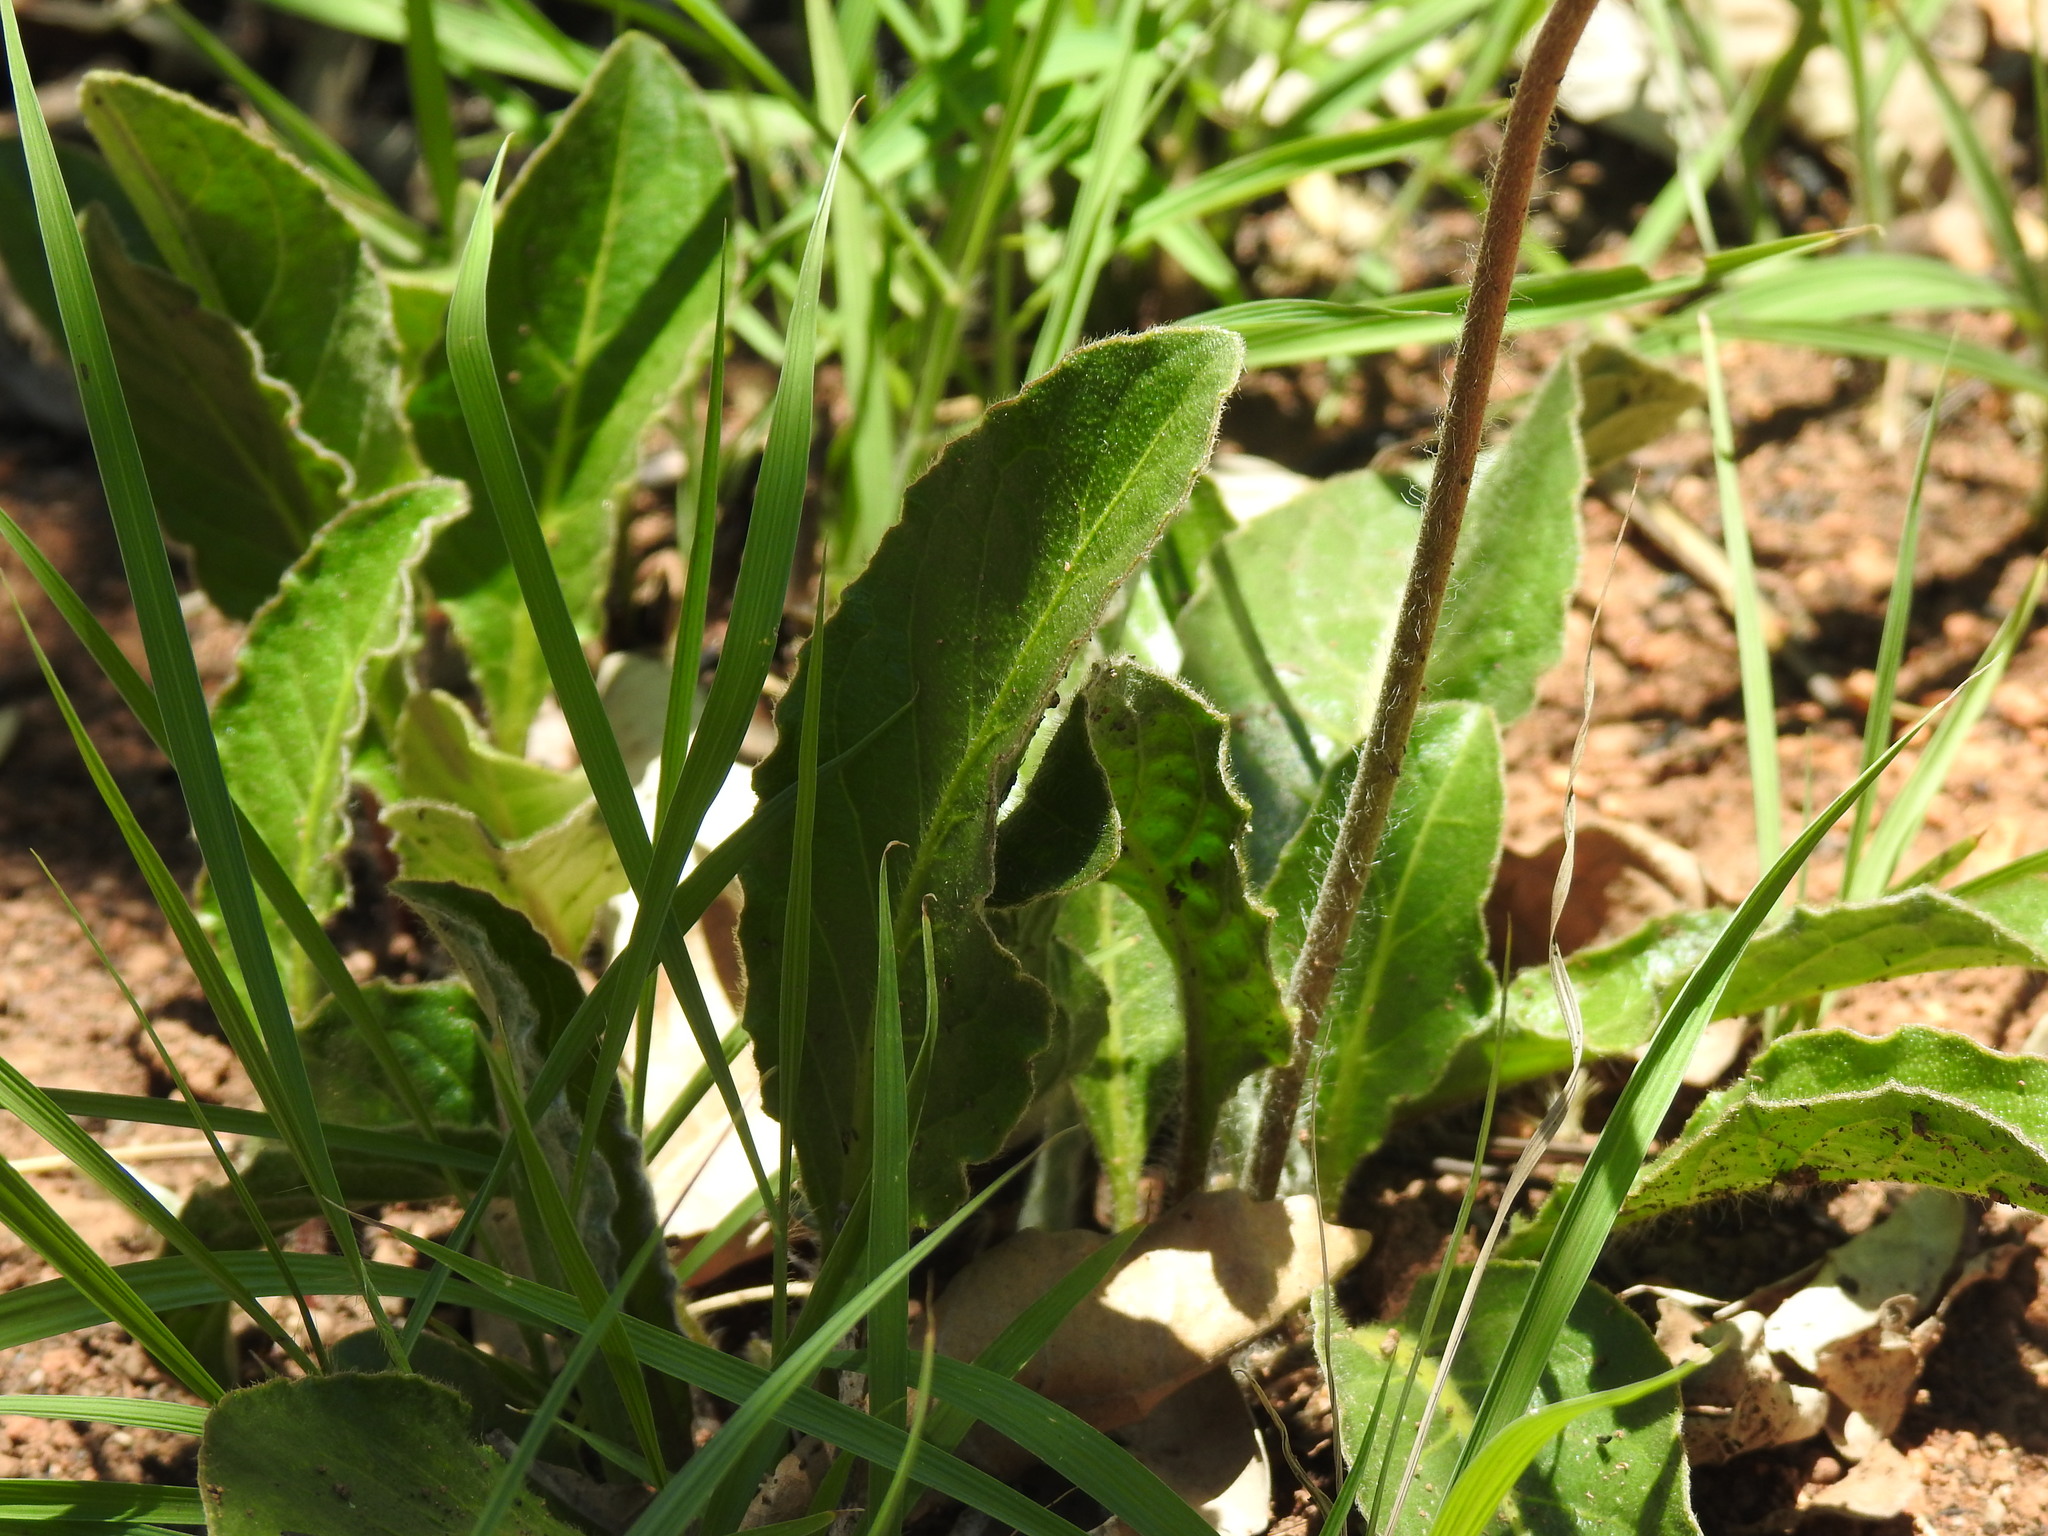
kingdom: Plantae
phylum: Tracheophyta
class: Magnoliopsida
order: Asterales
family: Asteraceae
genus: Gerbera
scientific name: Gerbera viridifolia
